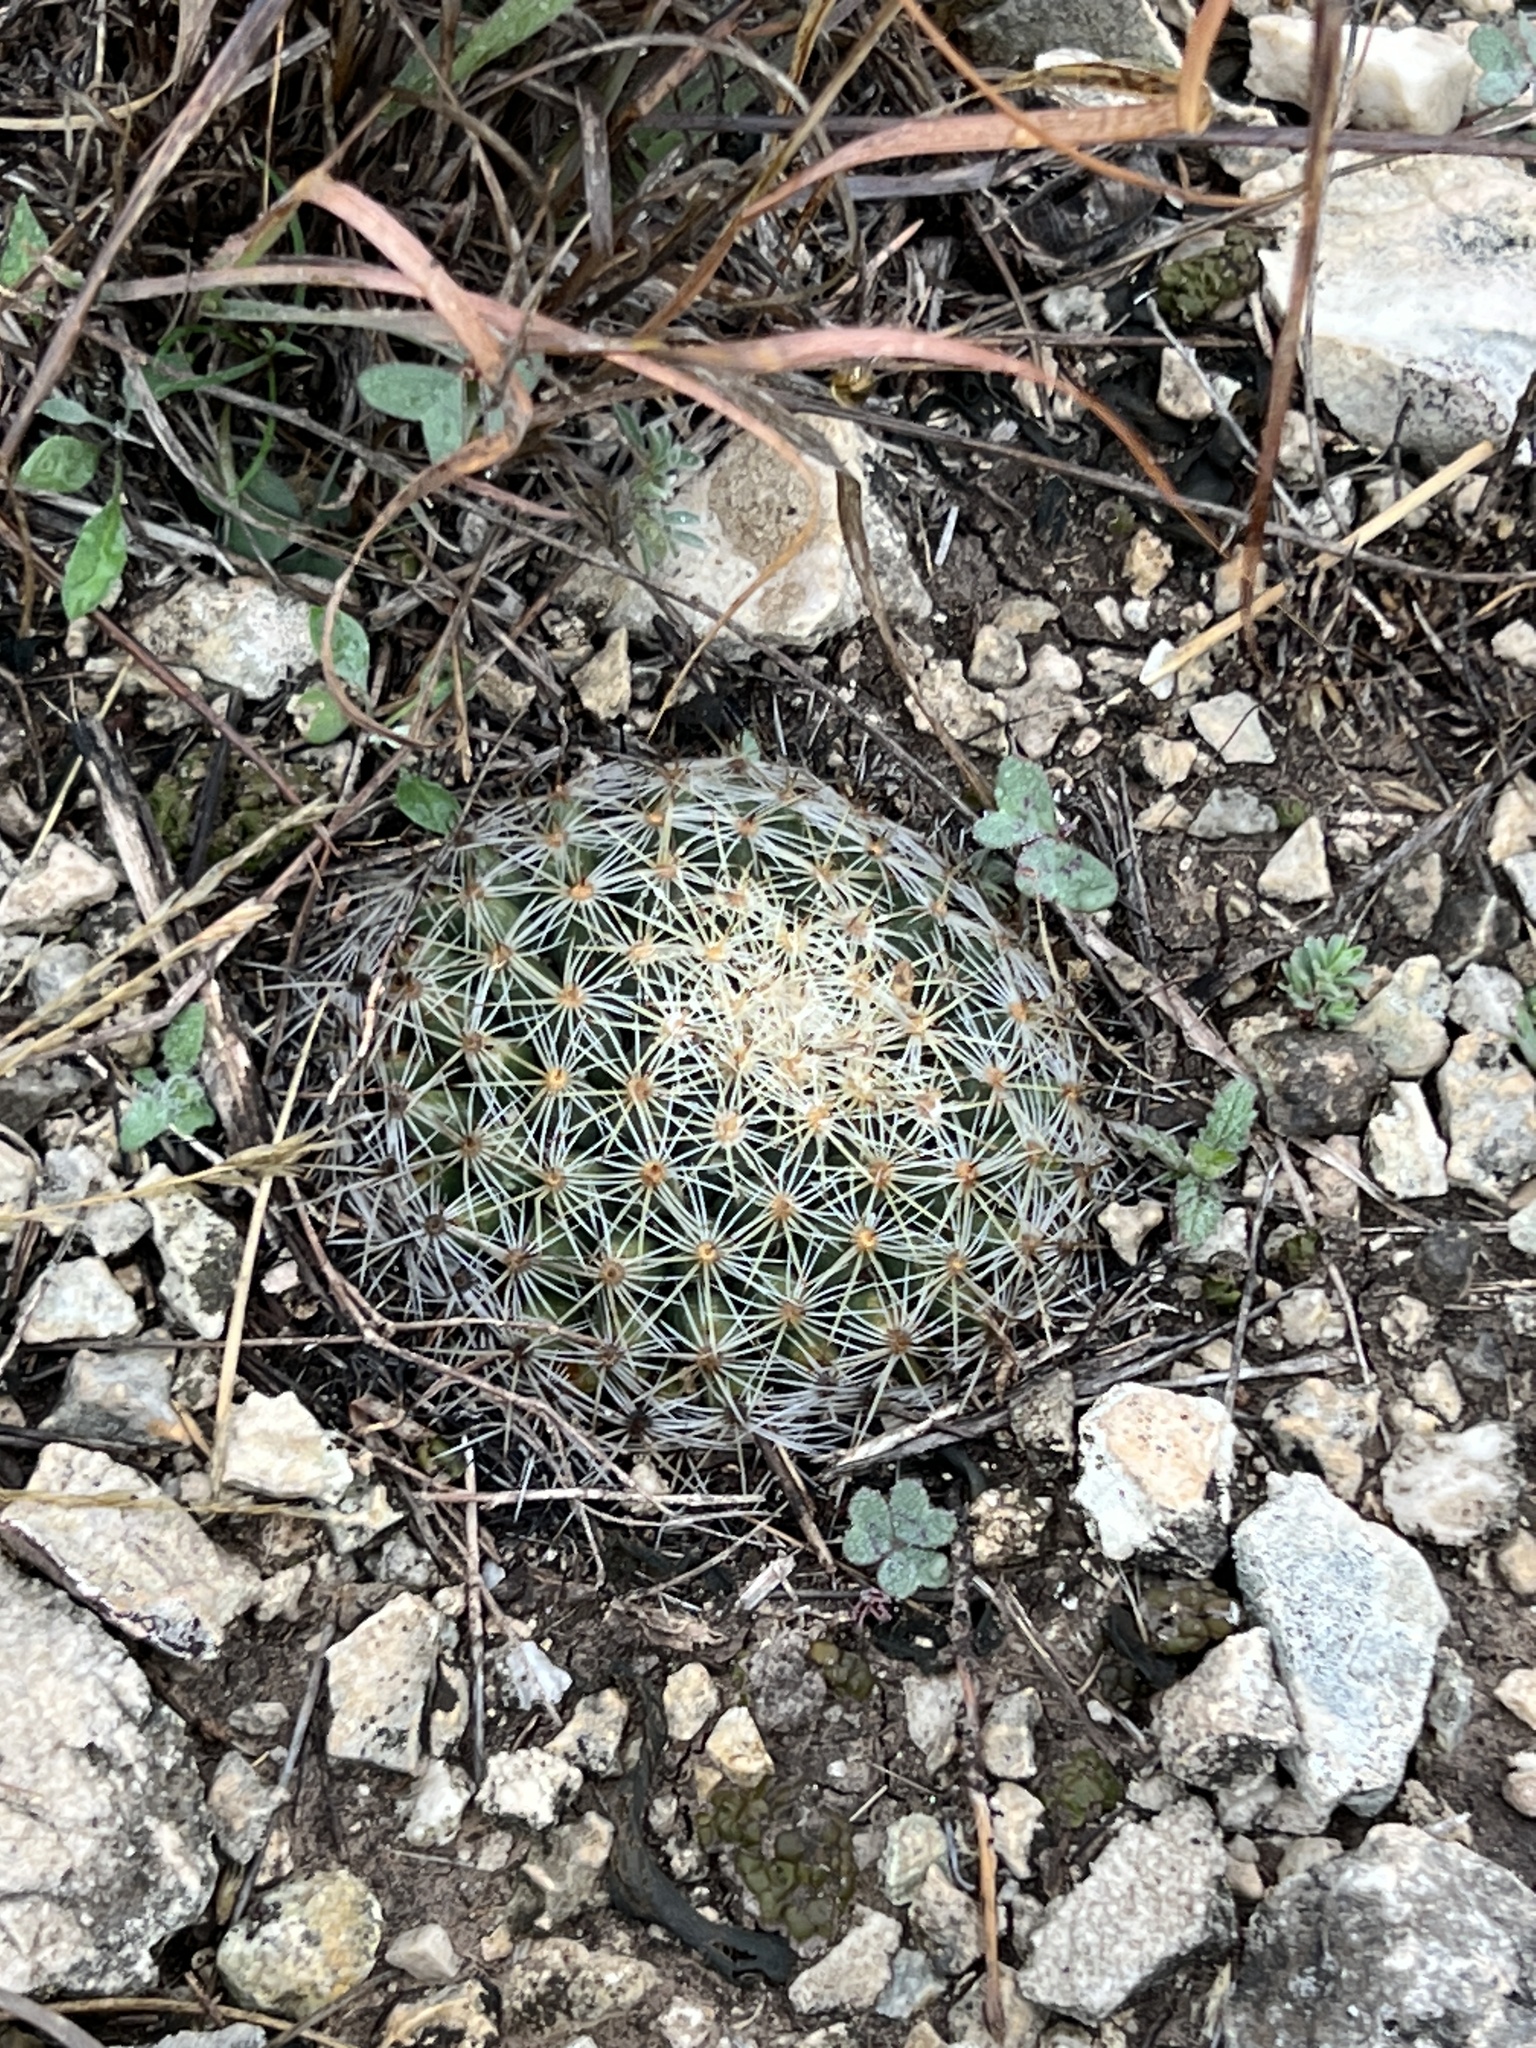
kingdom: Plantae
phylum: Tracheophyta
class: Magnoliopsida
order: Caryophyllales
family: Cactaceae
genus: Mammillaria
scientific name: Mammillaria heyderi
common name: Little nipple cactus
